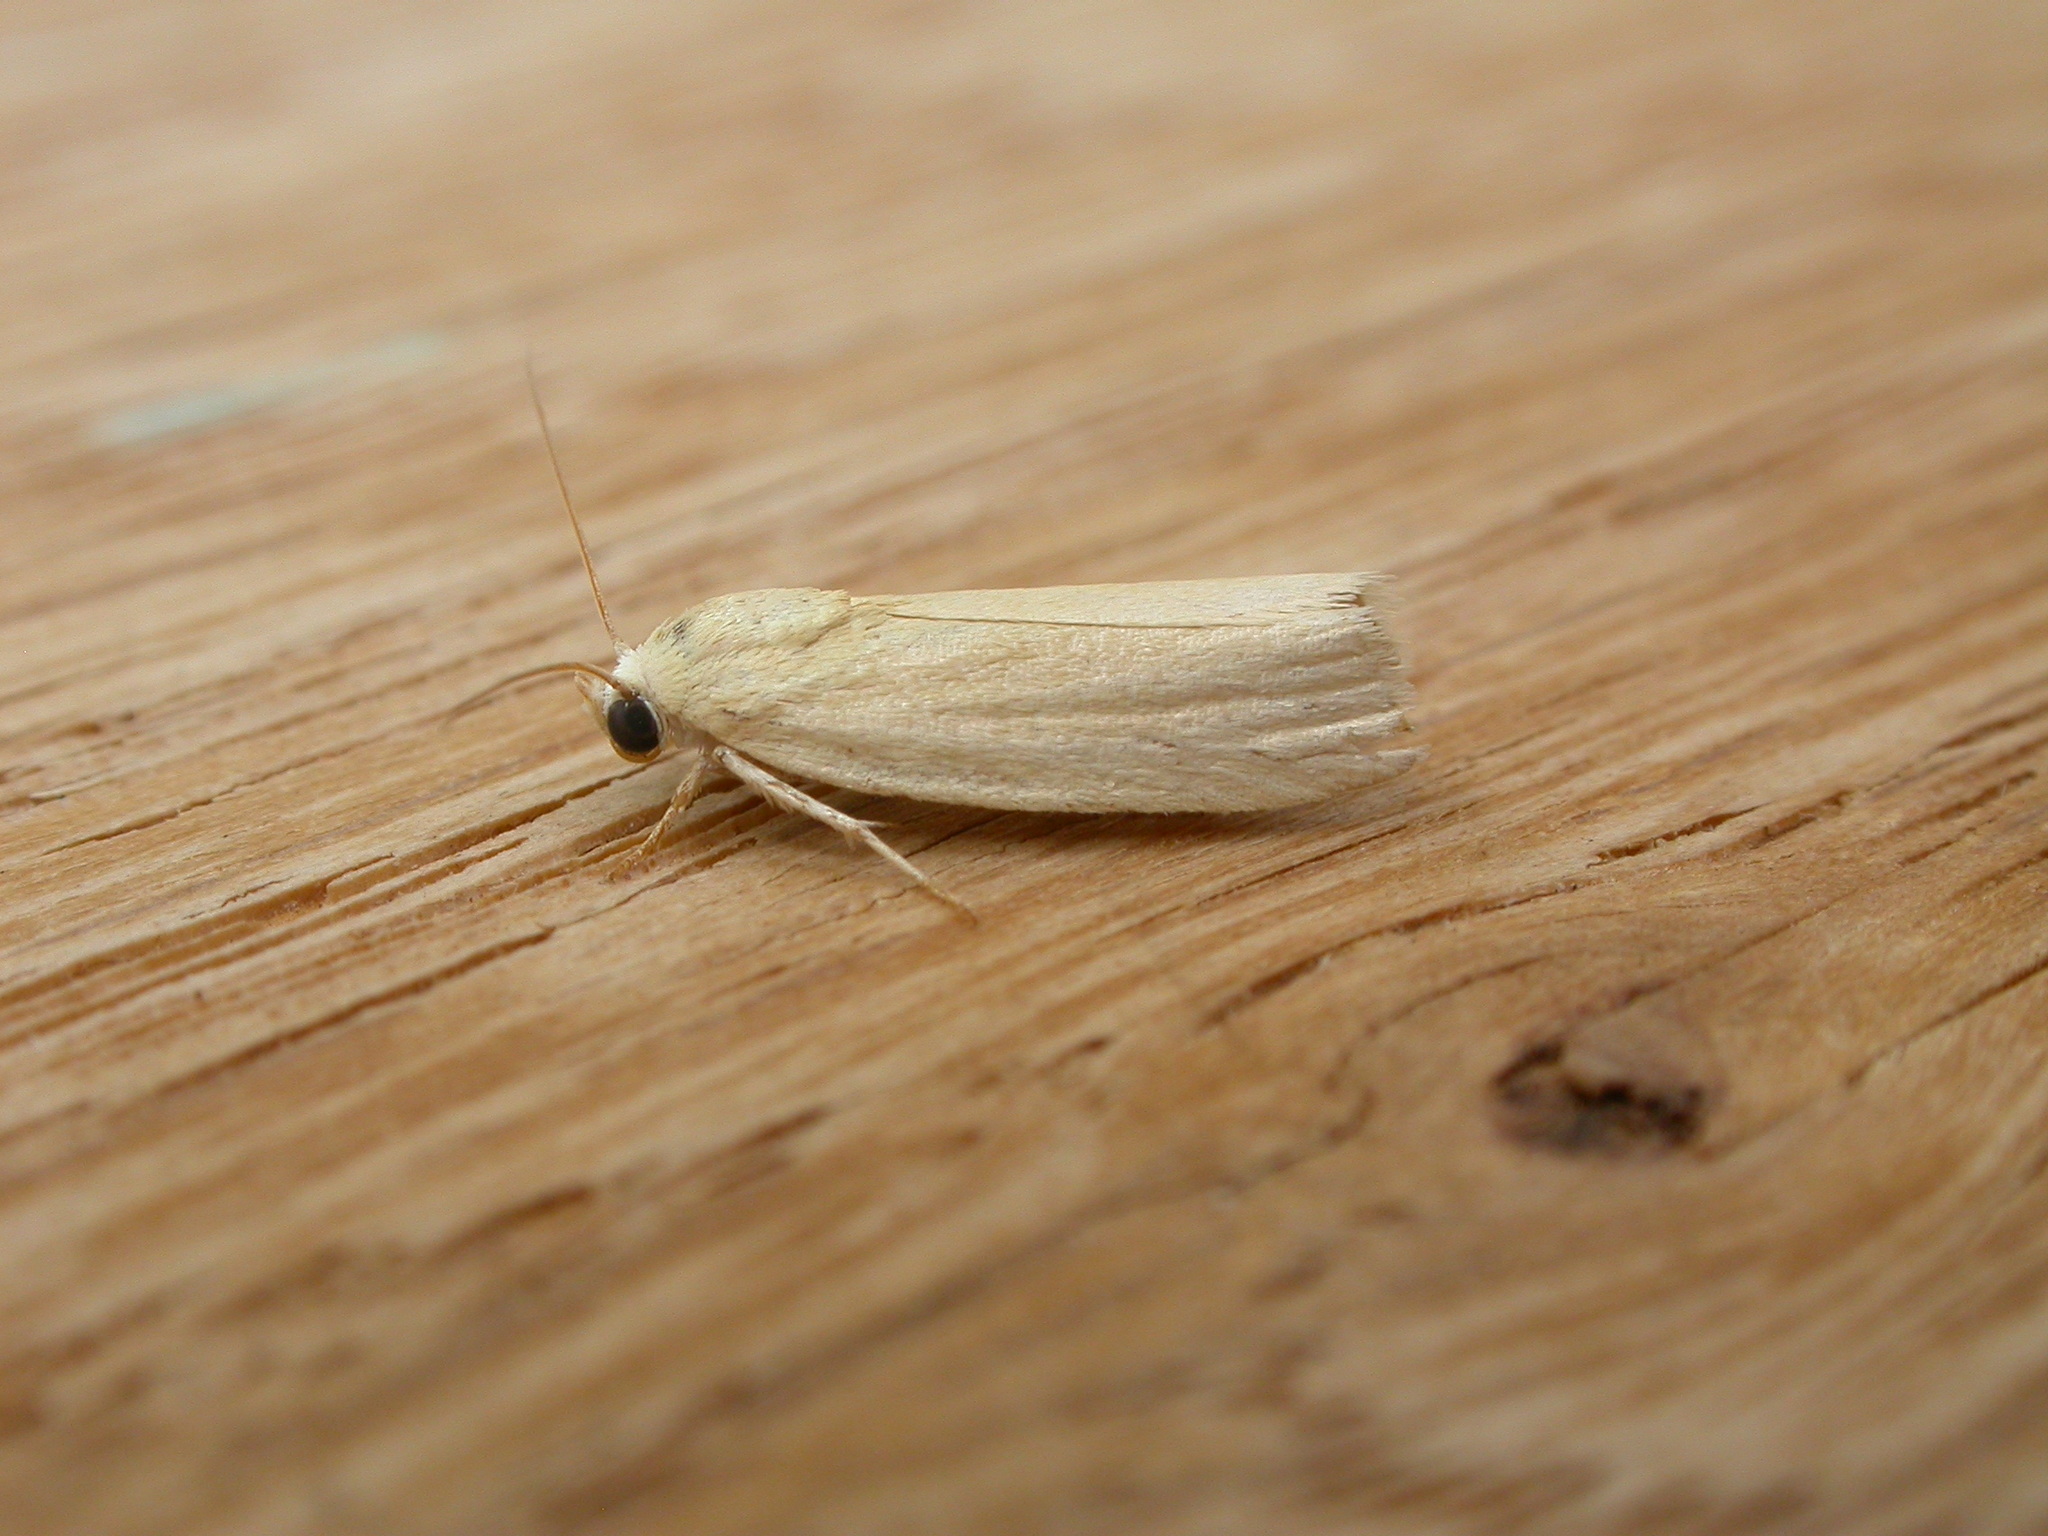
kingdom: Animalia
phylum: Arthropoda
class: Insecta
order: Lepidoptera
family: Nolidae
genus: Earias
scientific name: Earias chlorodes
